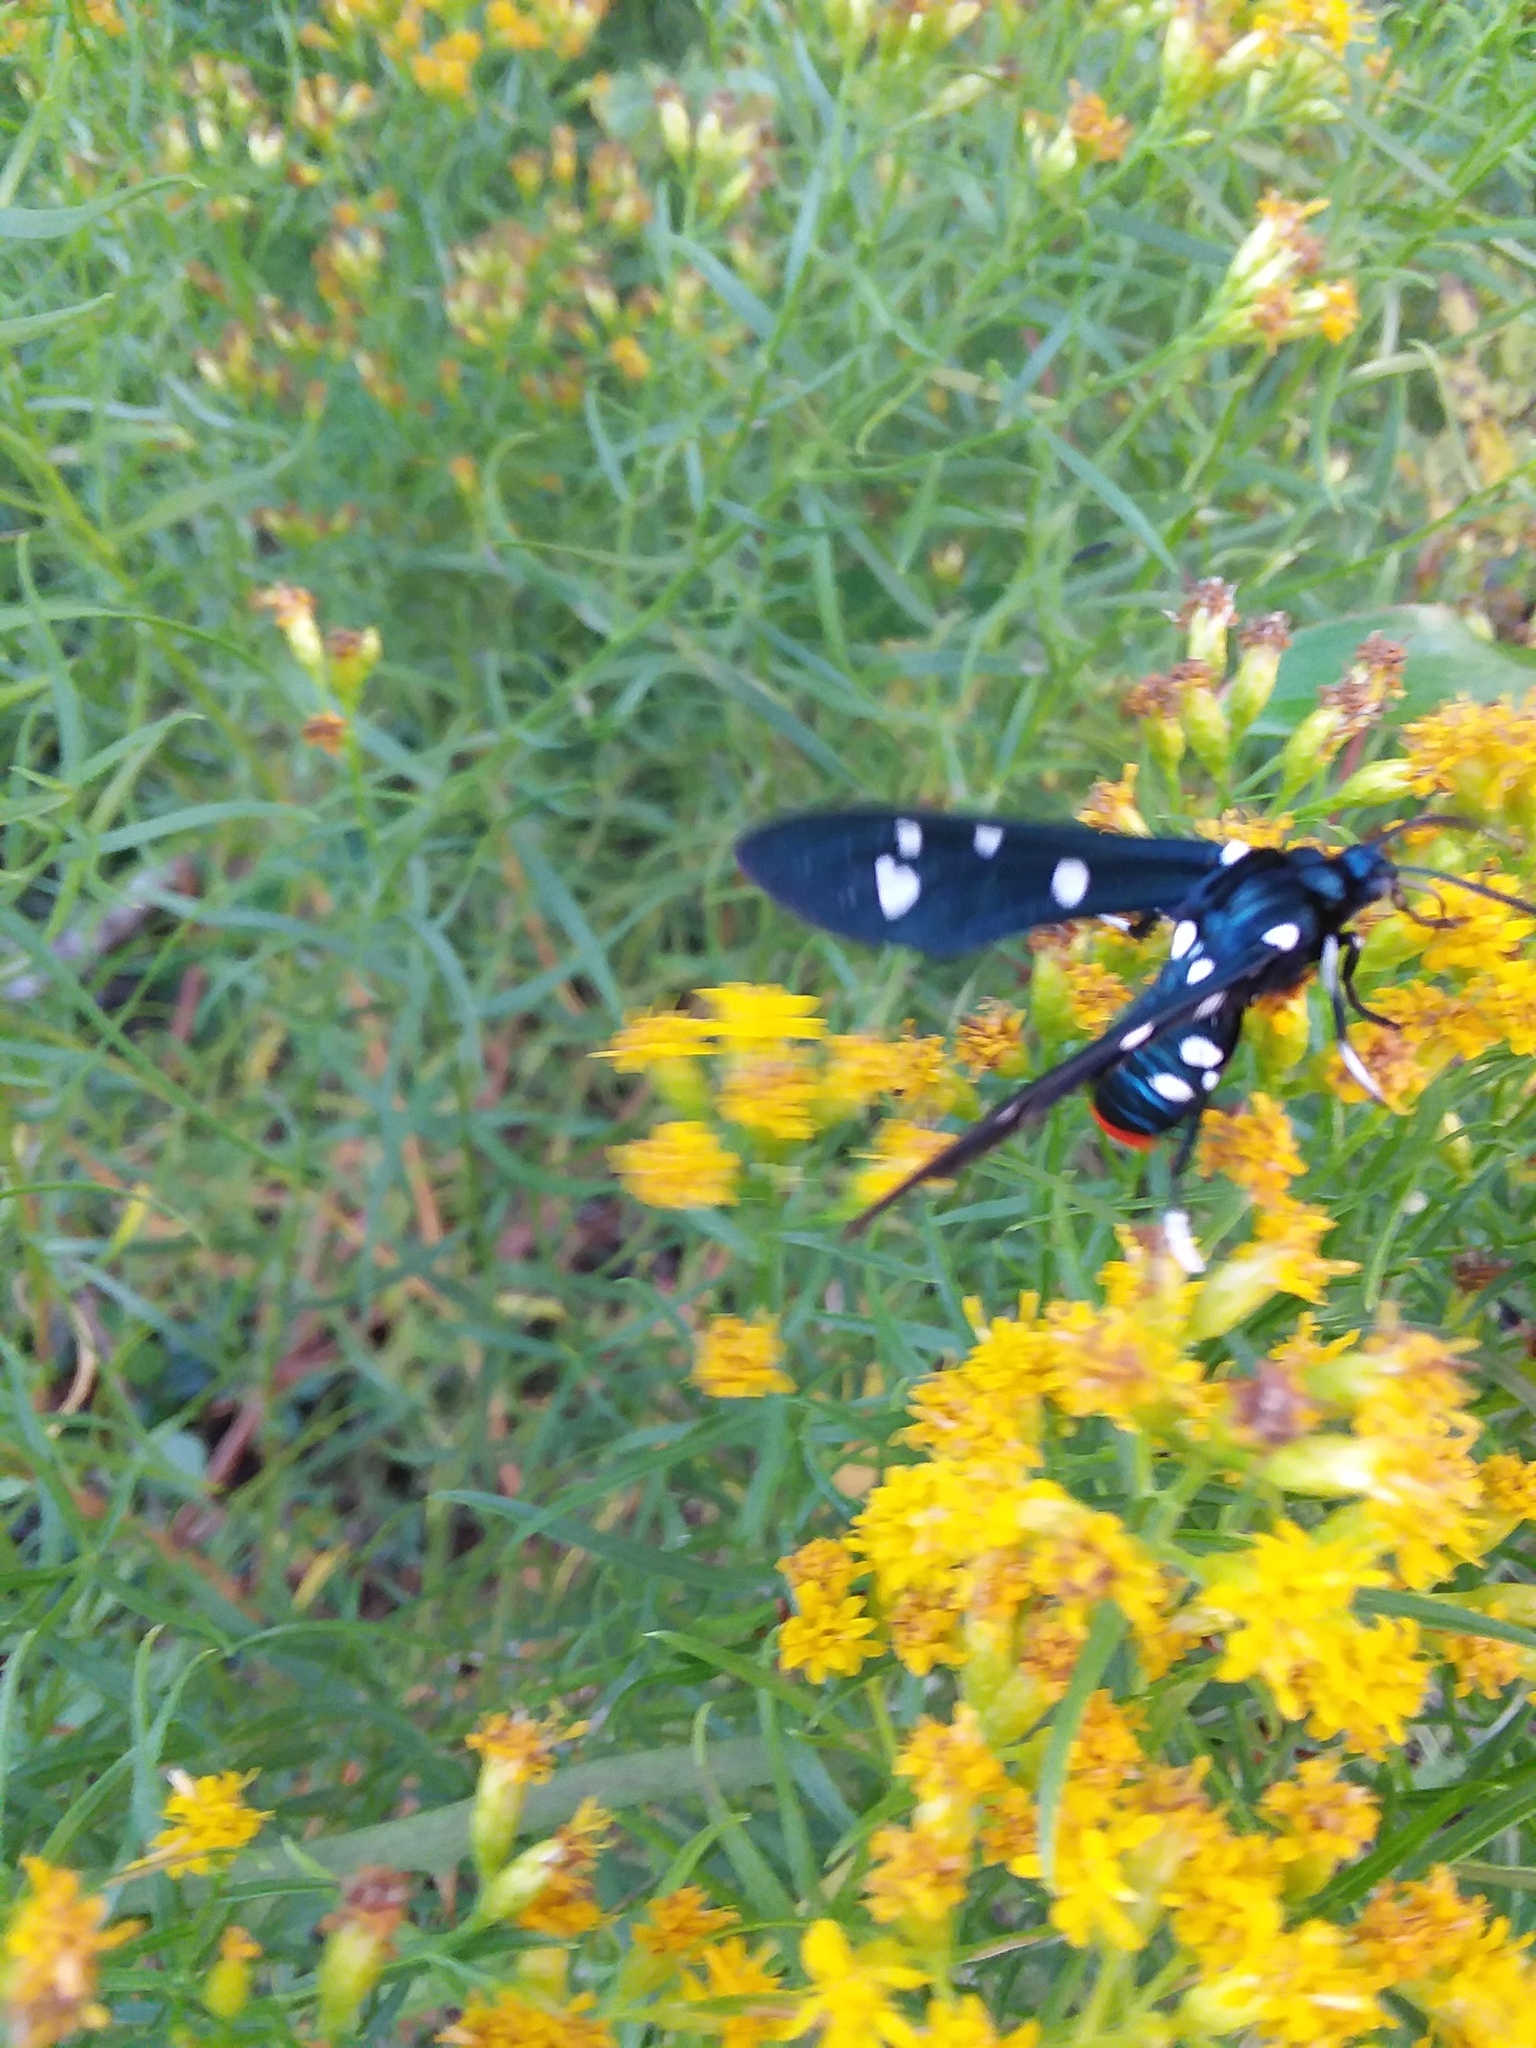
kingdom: Animalia
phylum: Arthropoda
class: Insecta
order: Lepidoptera
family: Erebidae
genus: Syntomeida
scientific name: Syntomeida epilais
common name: Polka-dot wasp moth
